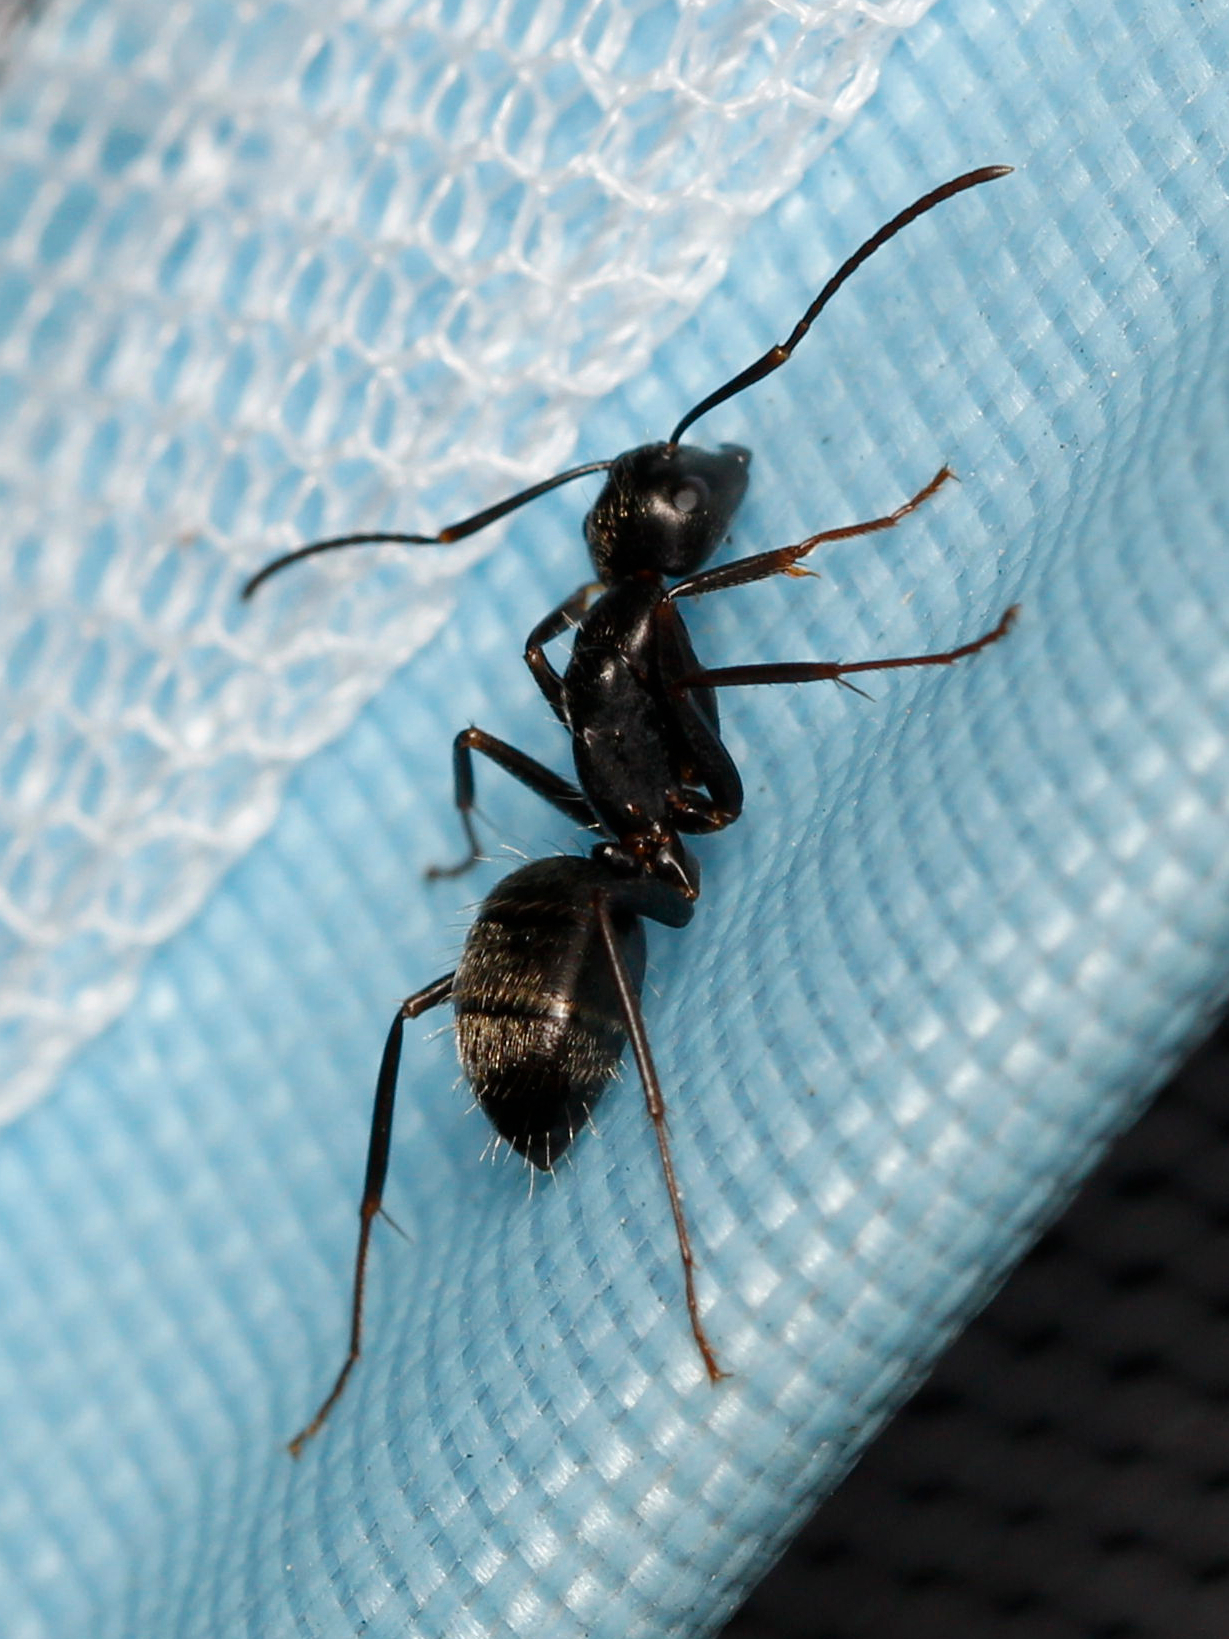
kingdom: Animalia
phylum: Arthropoda
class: Insecta
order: Hymenoptera
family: Formicidae
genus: Camponotus
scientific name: Camponotus pennsylvanicus
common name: Black carpenter ant
